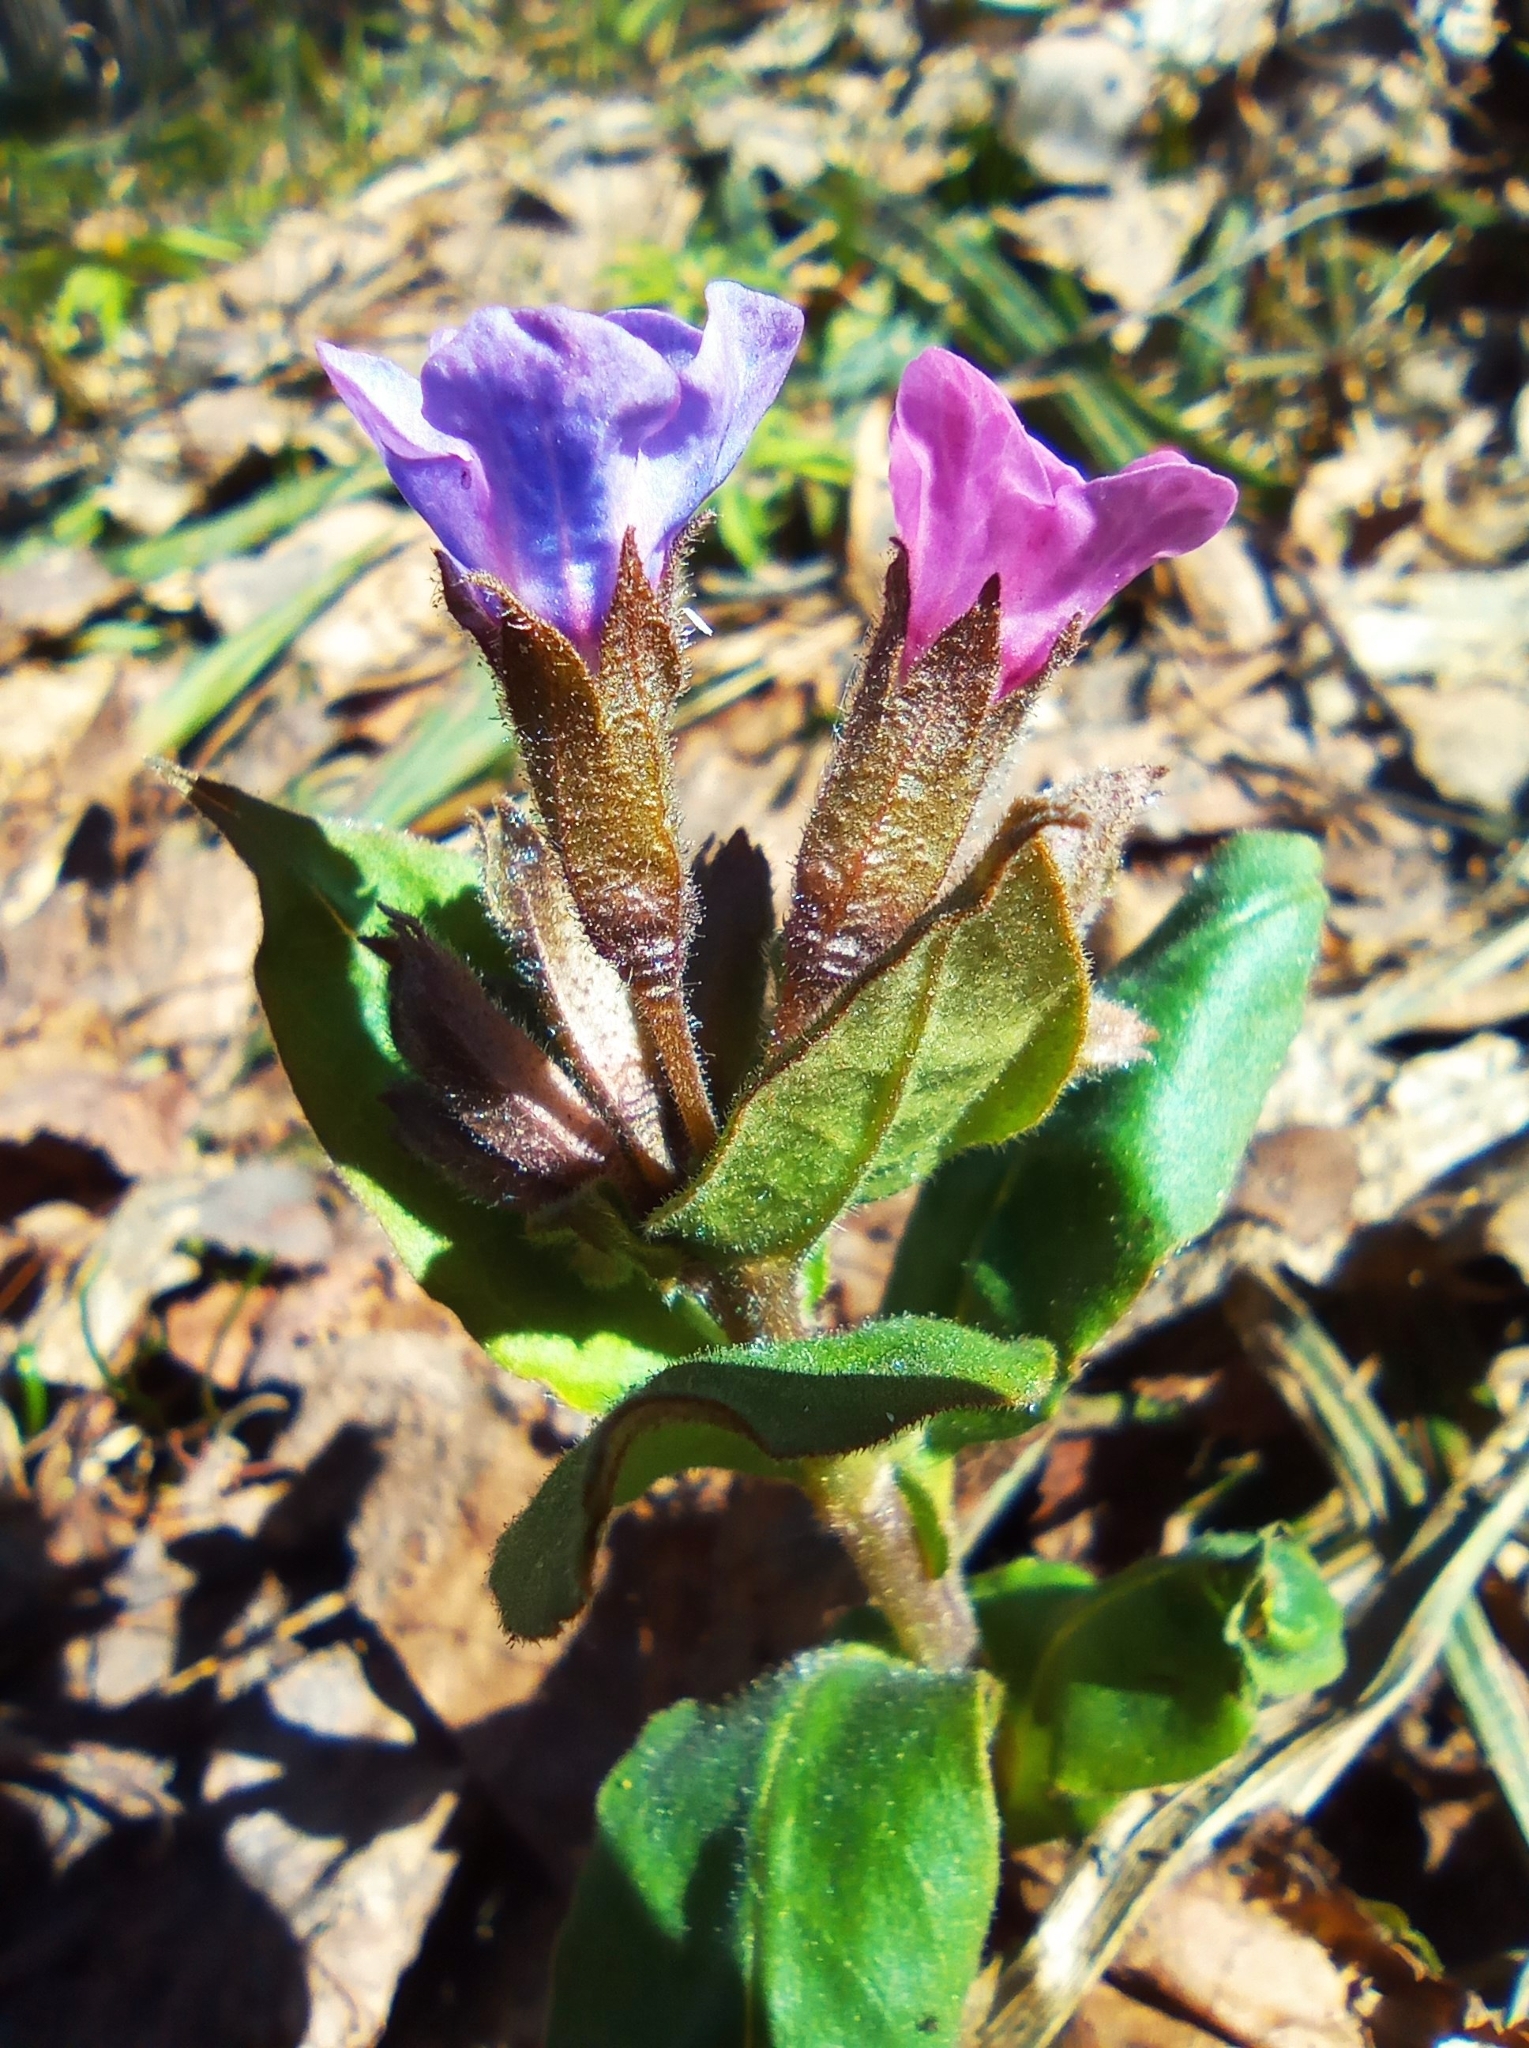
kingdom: Plantae
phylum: Tracheophyta
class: Magnoliopsida
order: Boraginales
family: Boraginaceae
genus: Pulmonaria
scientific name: Pulmonaria obscura
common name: Suffolk lungwort
